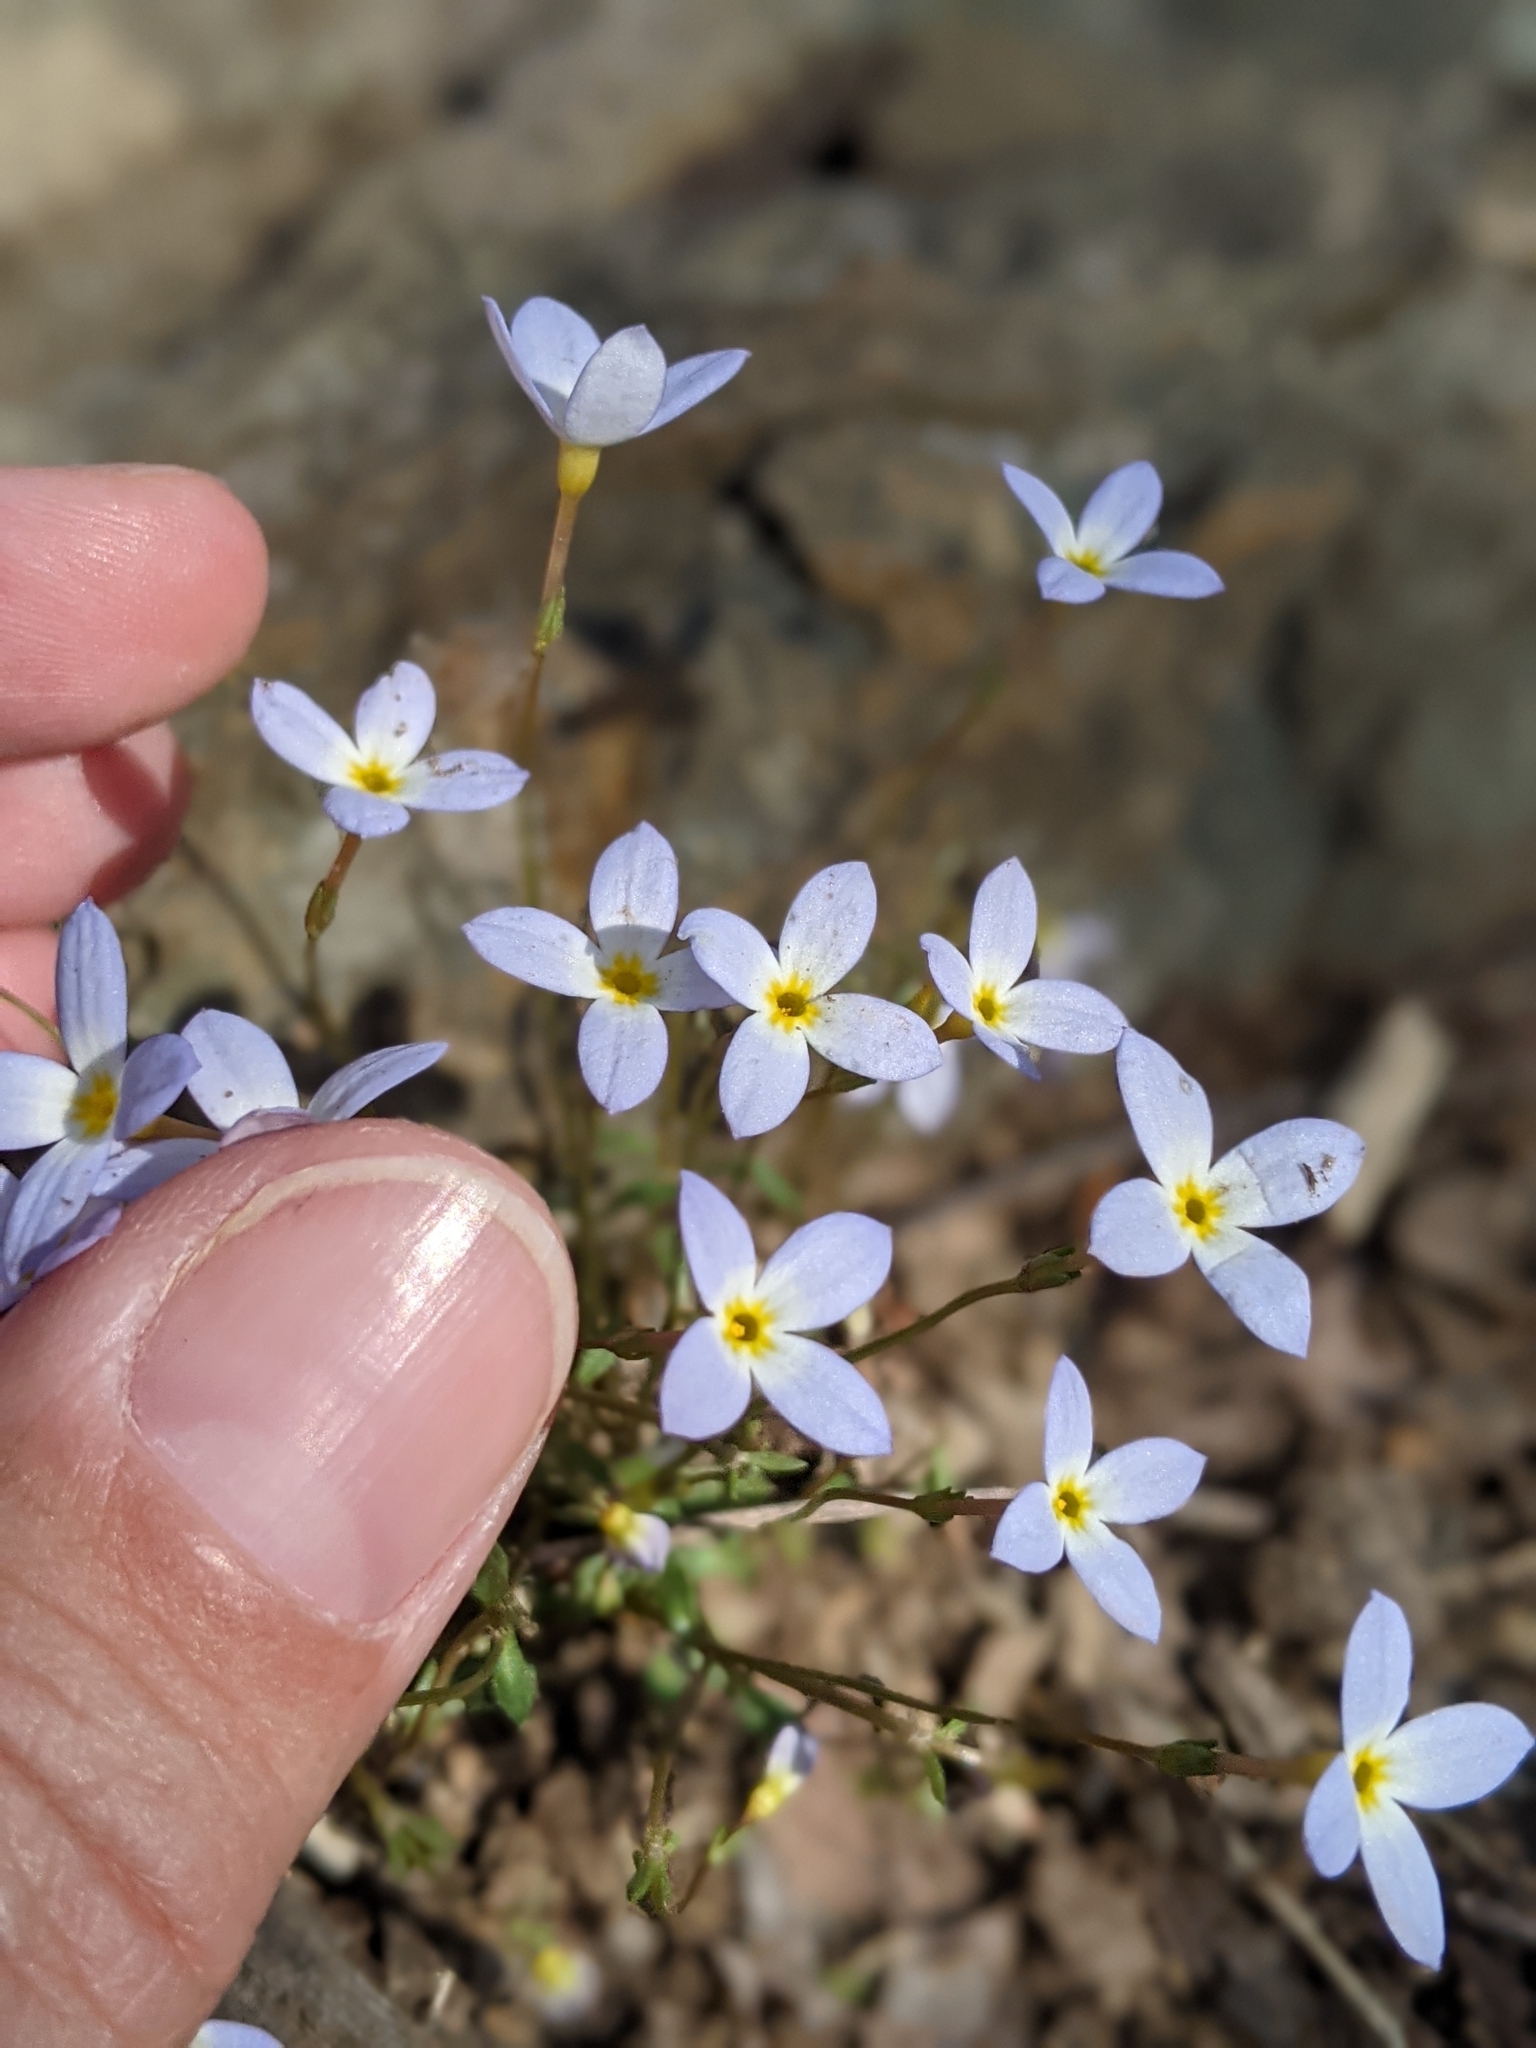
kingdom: Plantae
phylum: Tracheophyta
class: Magnoliopsida
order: Gentianales
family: Rubiaceae
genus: Houstonia
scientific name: Houstonia caerulea
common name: Bluets
